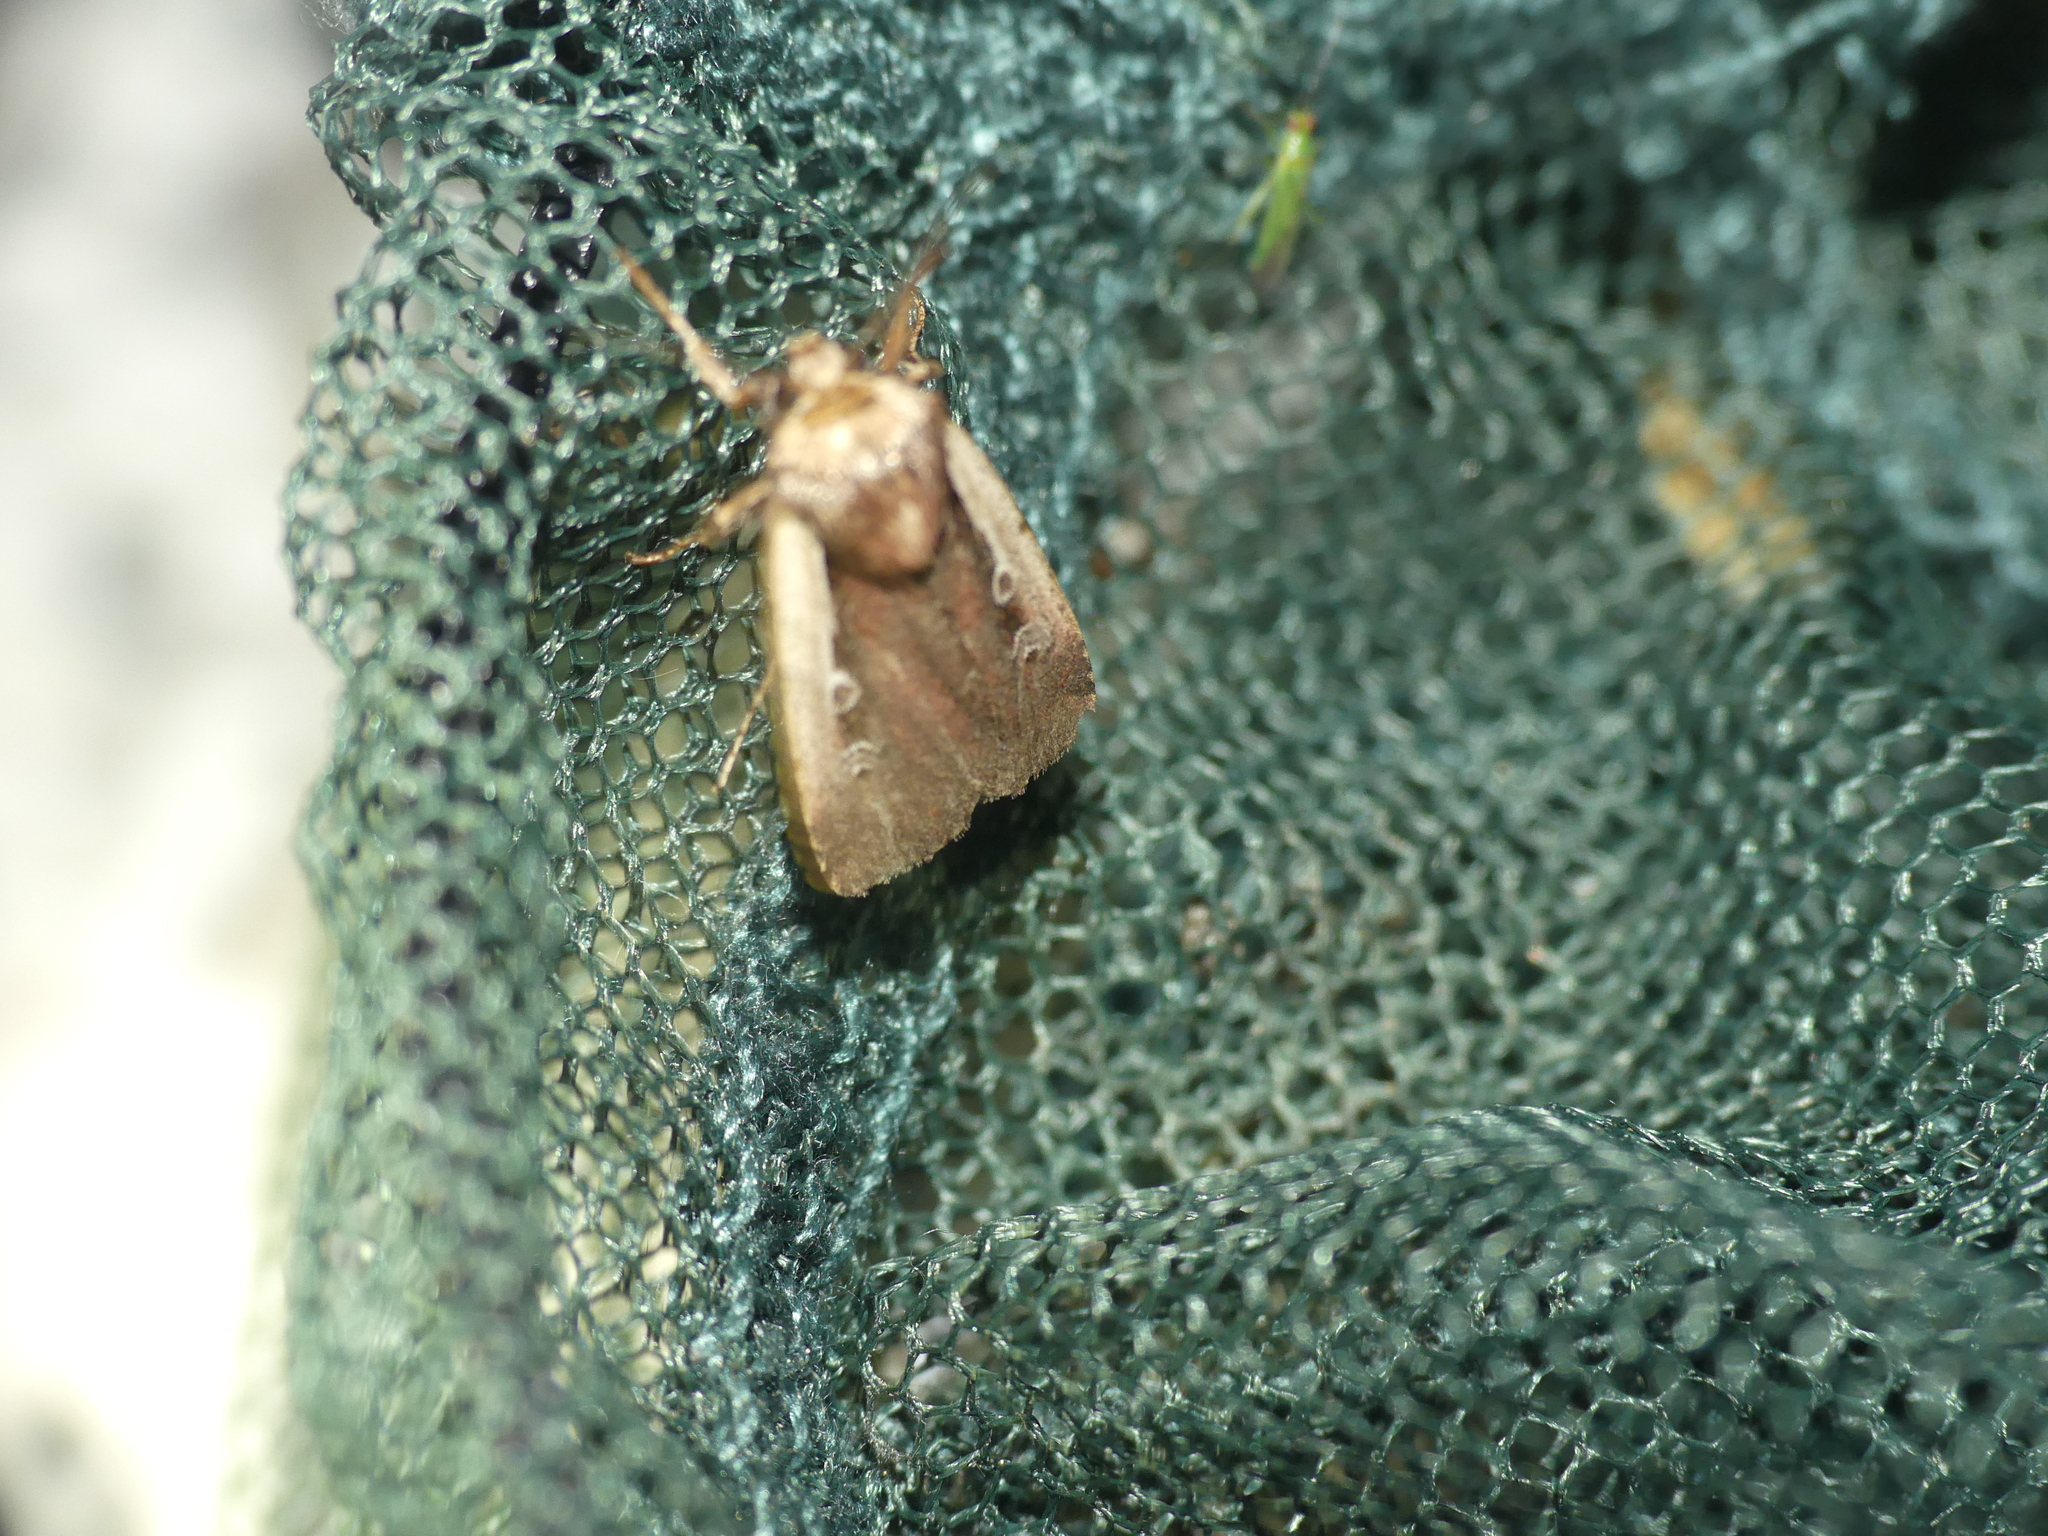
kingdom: Animalia
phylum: Arthropoda
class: Insecta
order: Lepidoptera
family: Noctuidae
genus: Ochropleura
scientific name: Ochropleura plecta
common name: Flame shoulder
